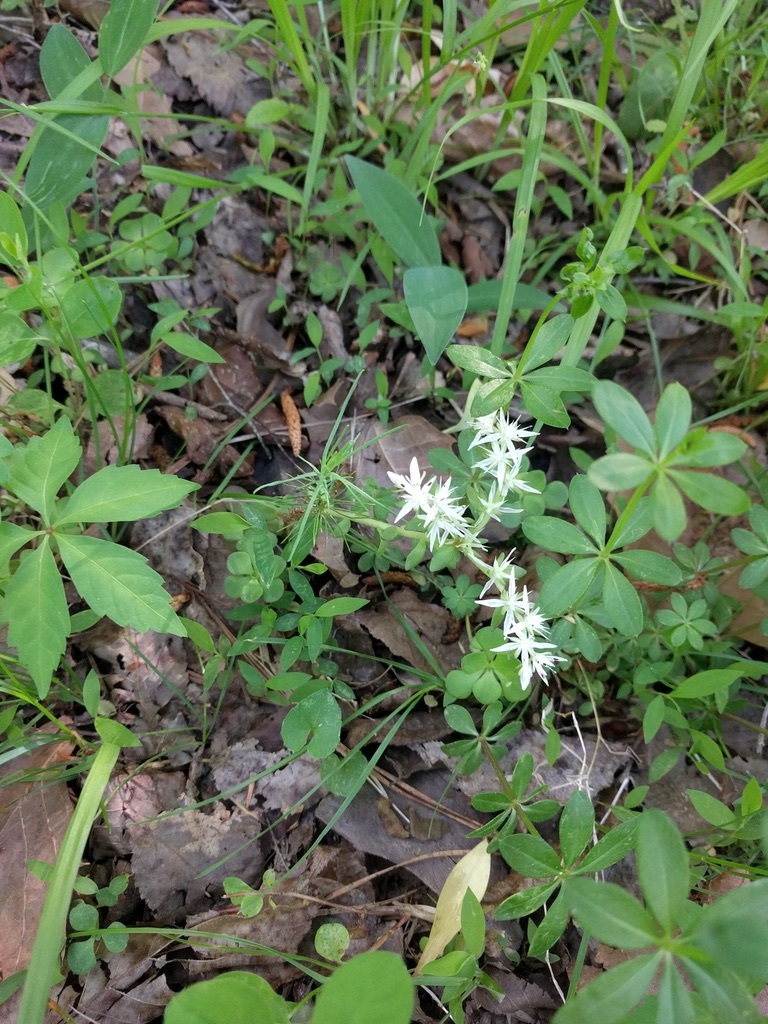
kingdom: Plantae
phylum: Tracheophyta
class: Magnoliopsida
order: Saxifragales
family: Crassulaceae
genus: Sedum
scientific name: Sedum ternatum
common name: Wild stonecrop
